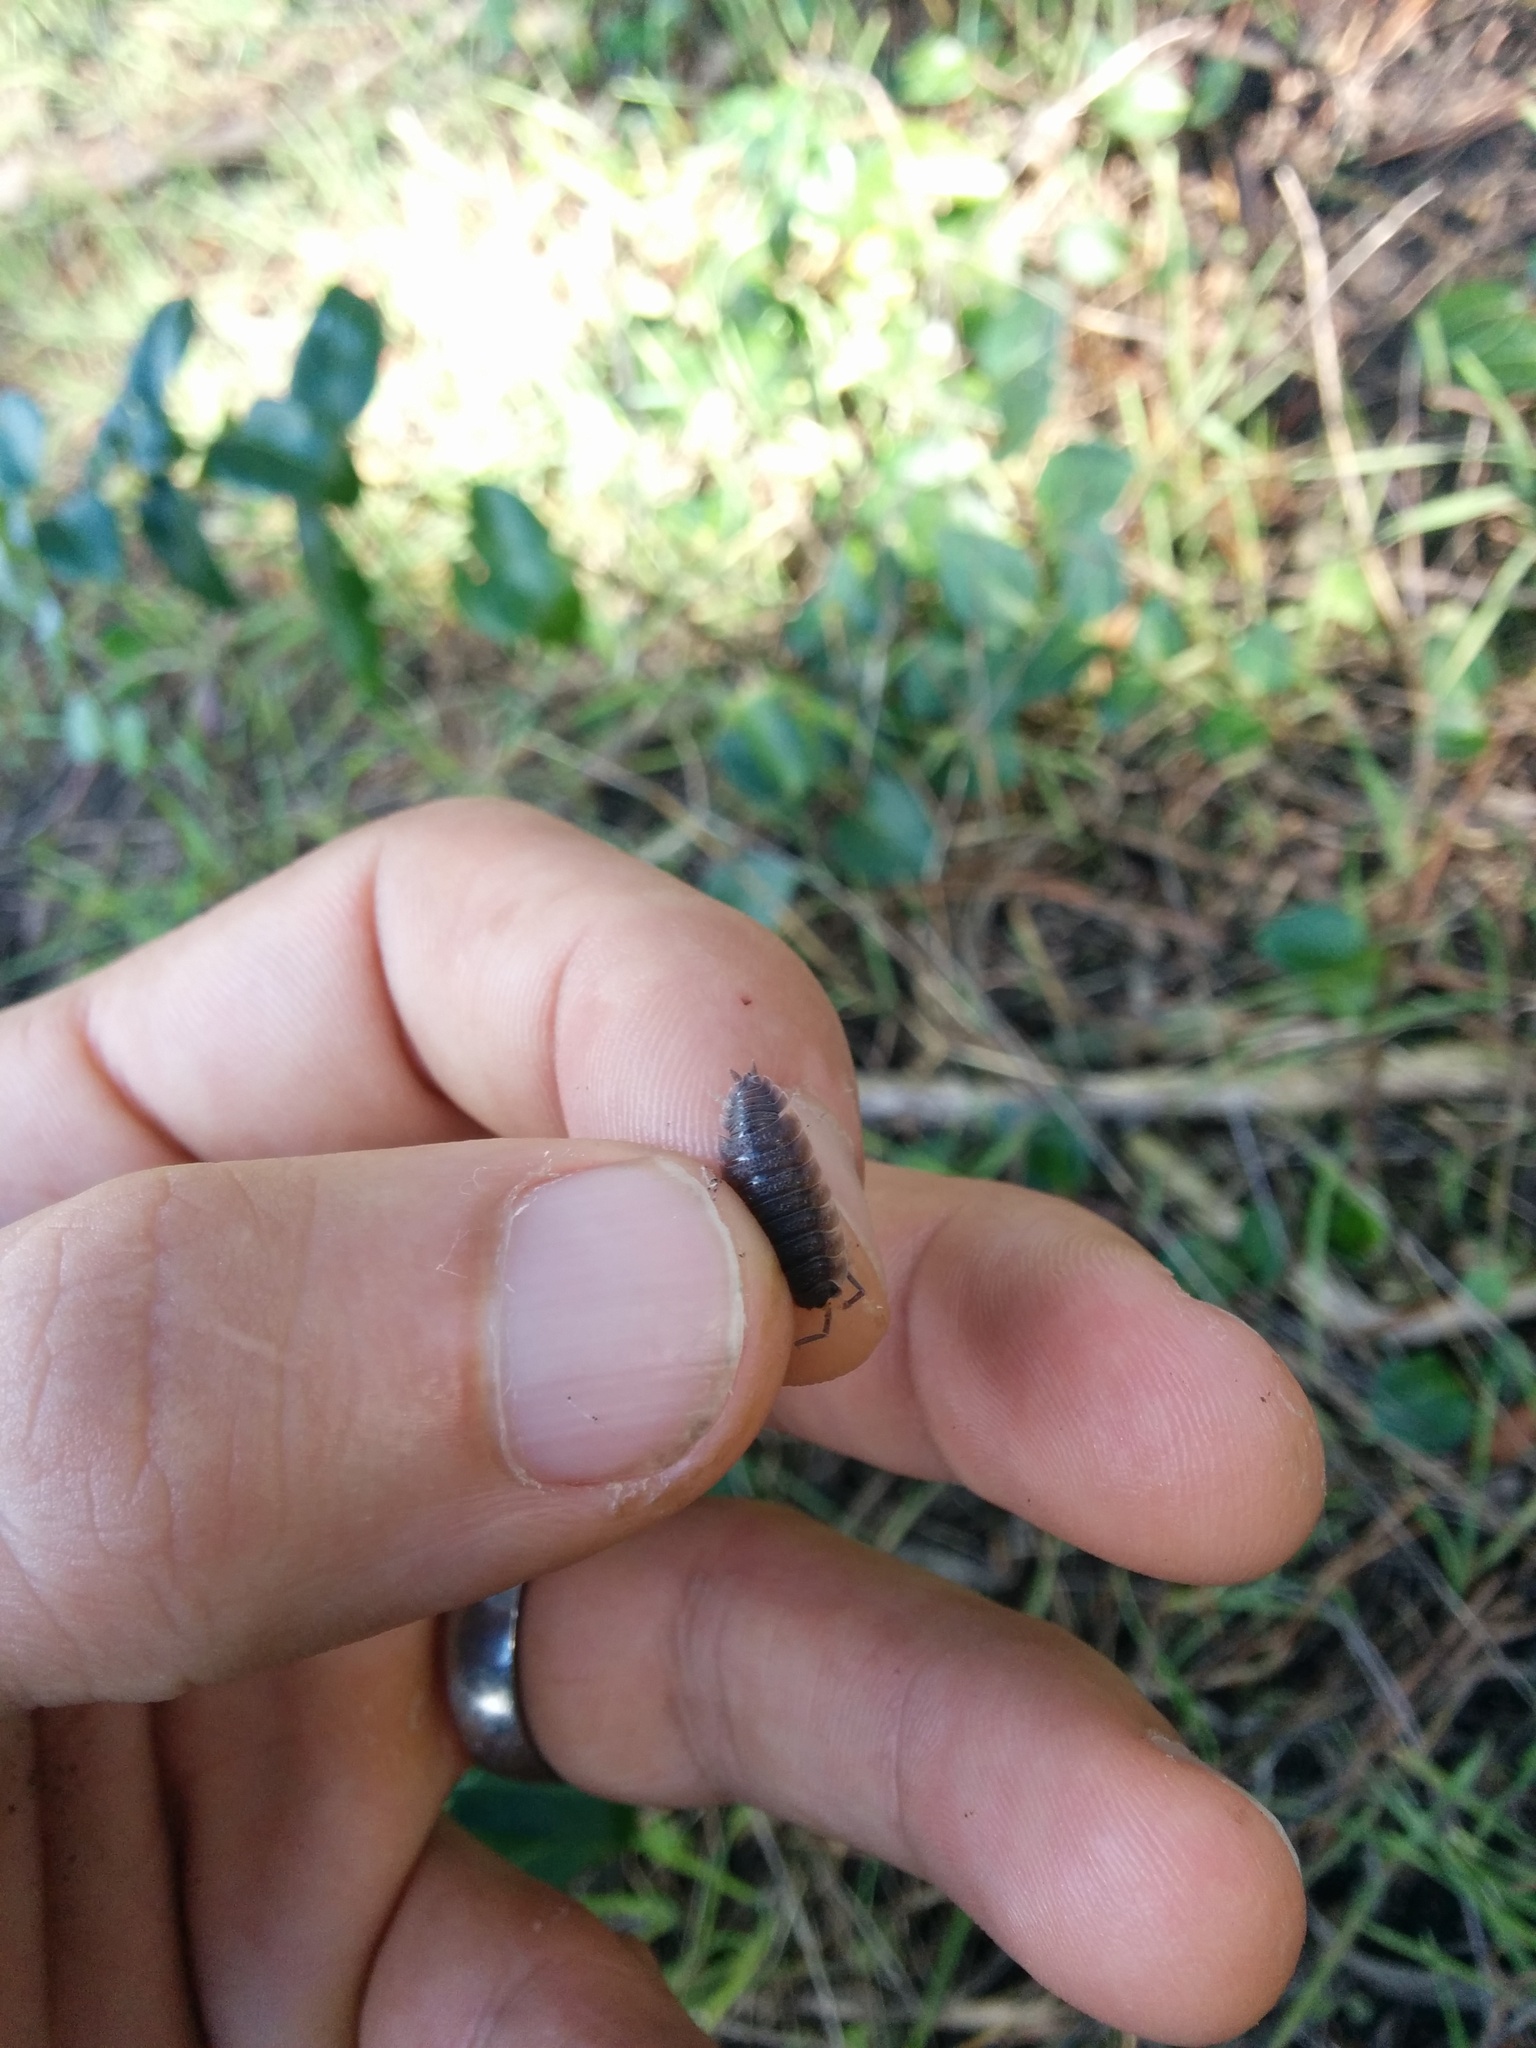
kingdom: Animalia
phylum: Arthropoda
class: Malacostraca
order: Isopoda
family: Porcellionidae
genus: Porcellio
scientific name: Porcellio scaber
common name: Common rough woodlouse
